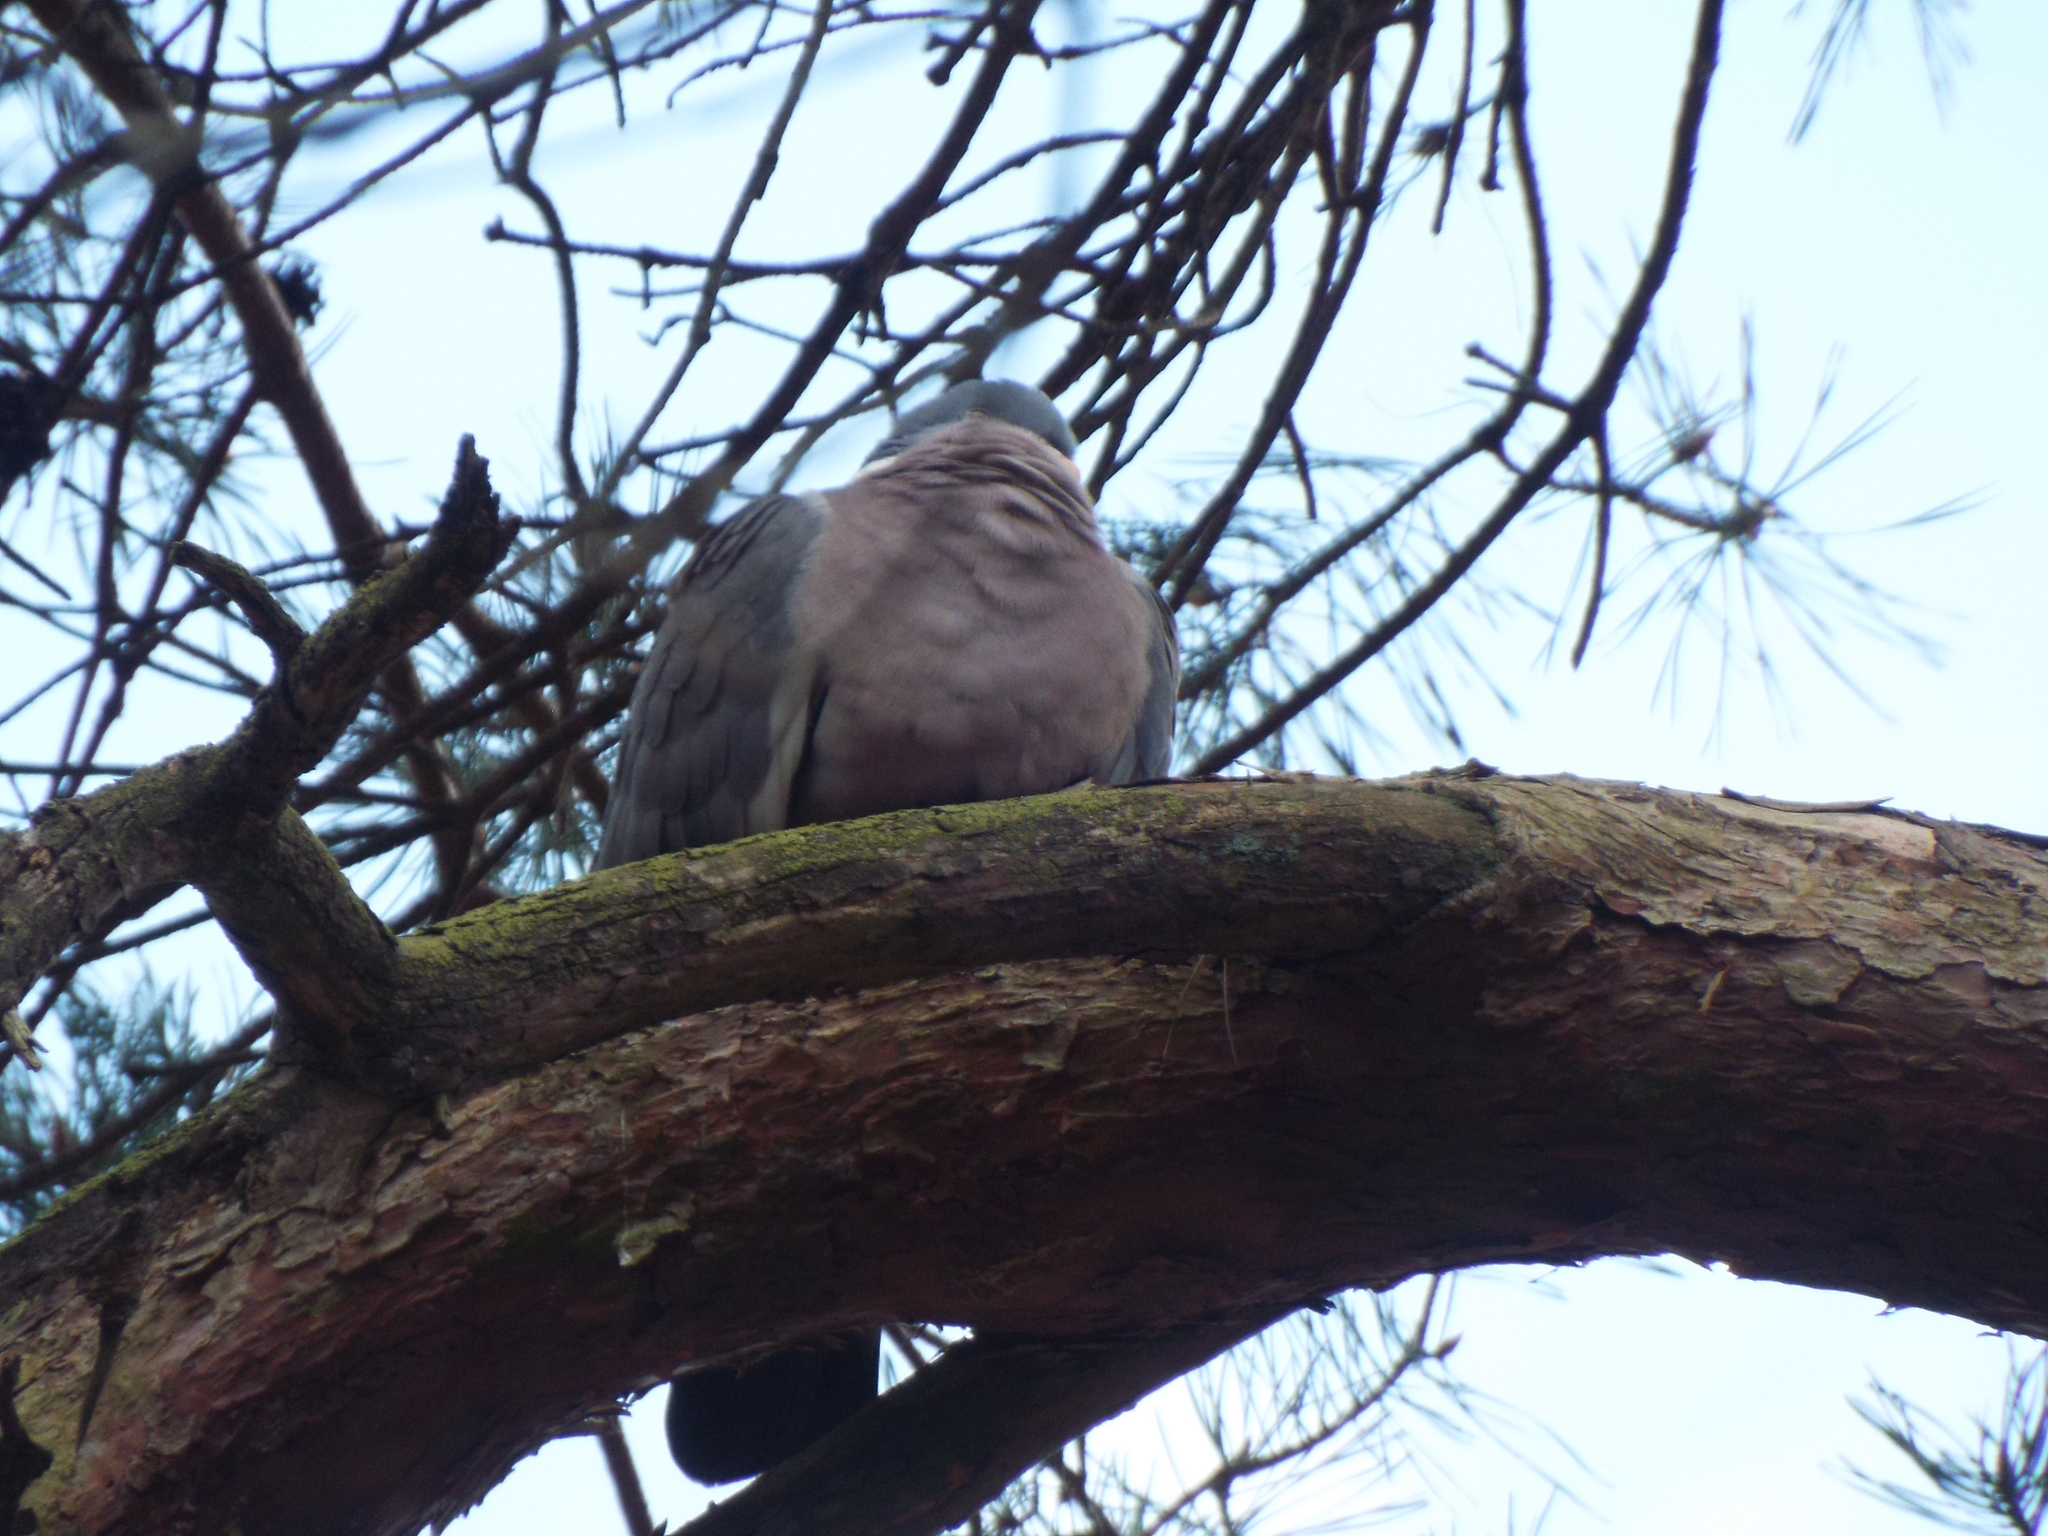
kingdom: Animalia
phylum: Chordata
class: Aves
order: Columbiformes
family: Columbidae
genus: Columba
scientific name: Columba palumbus
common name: Common wood pigeon
